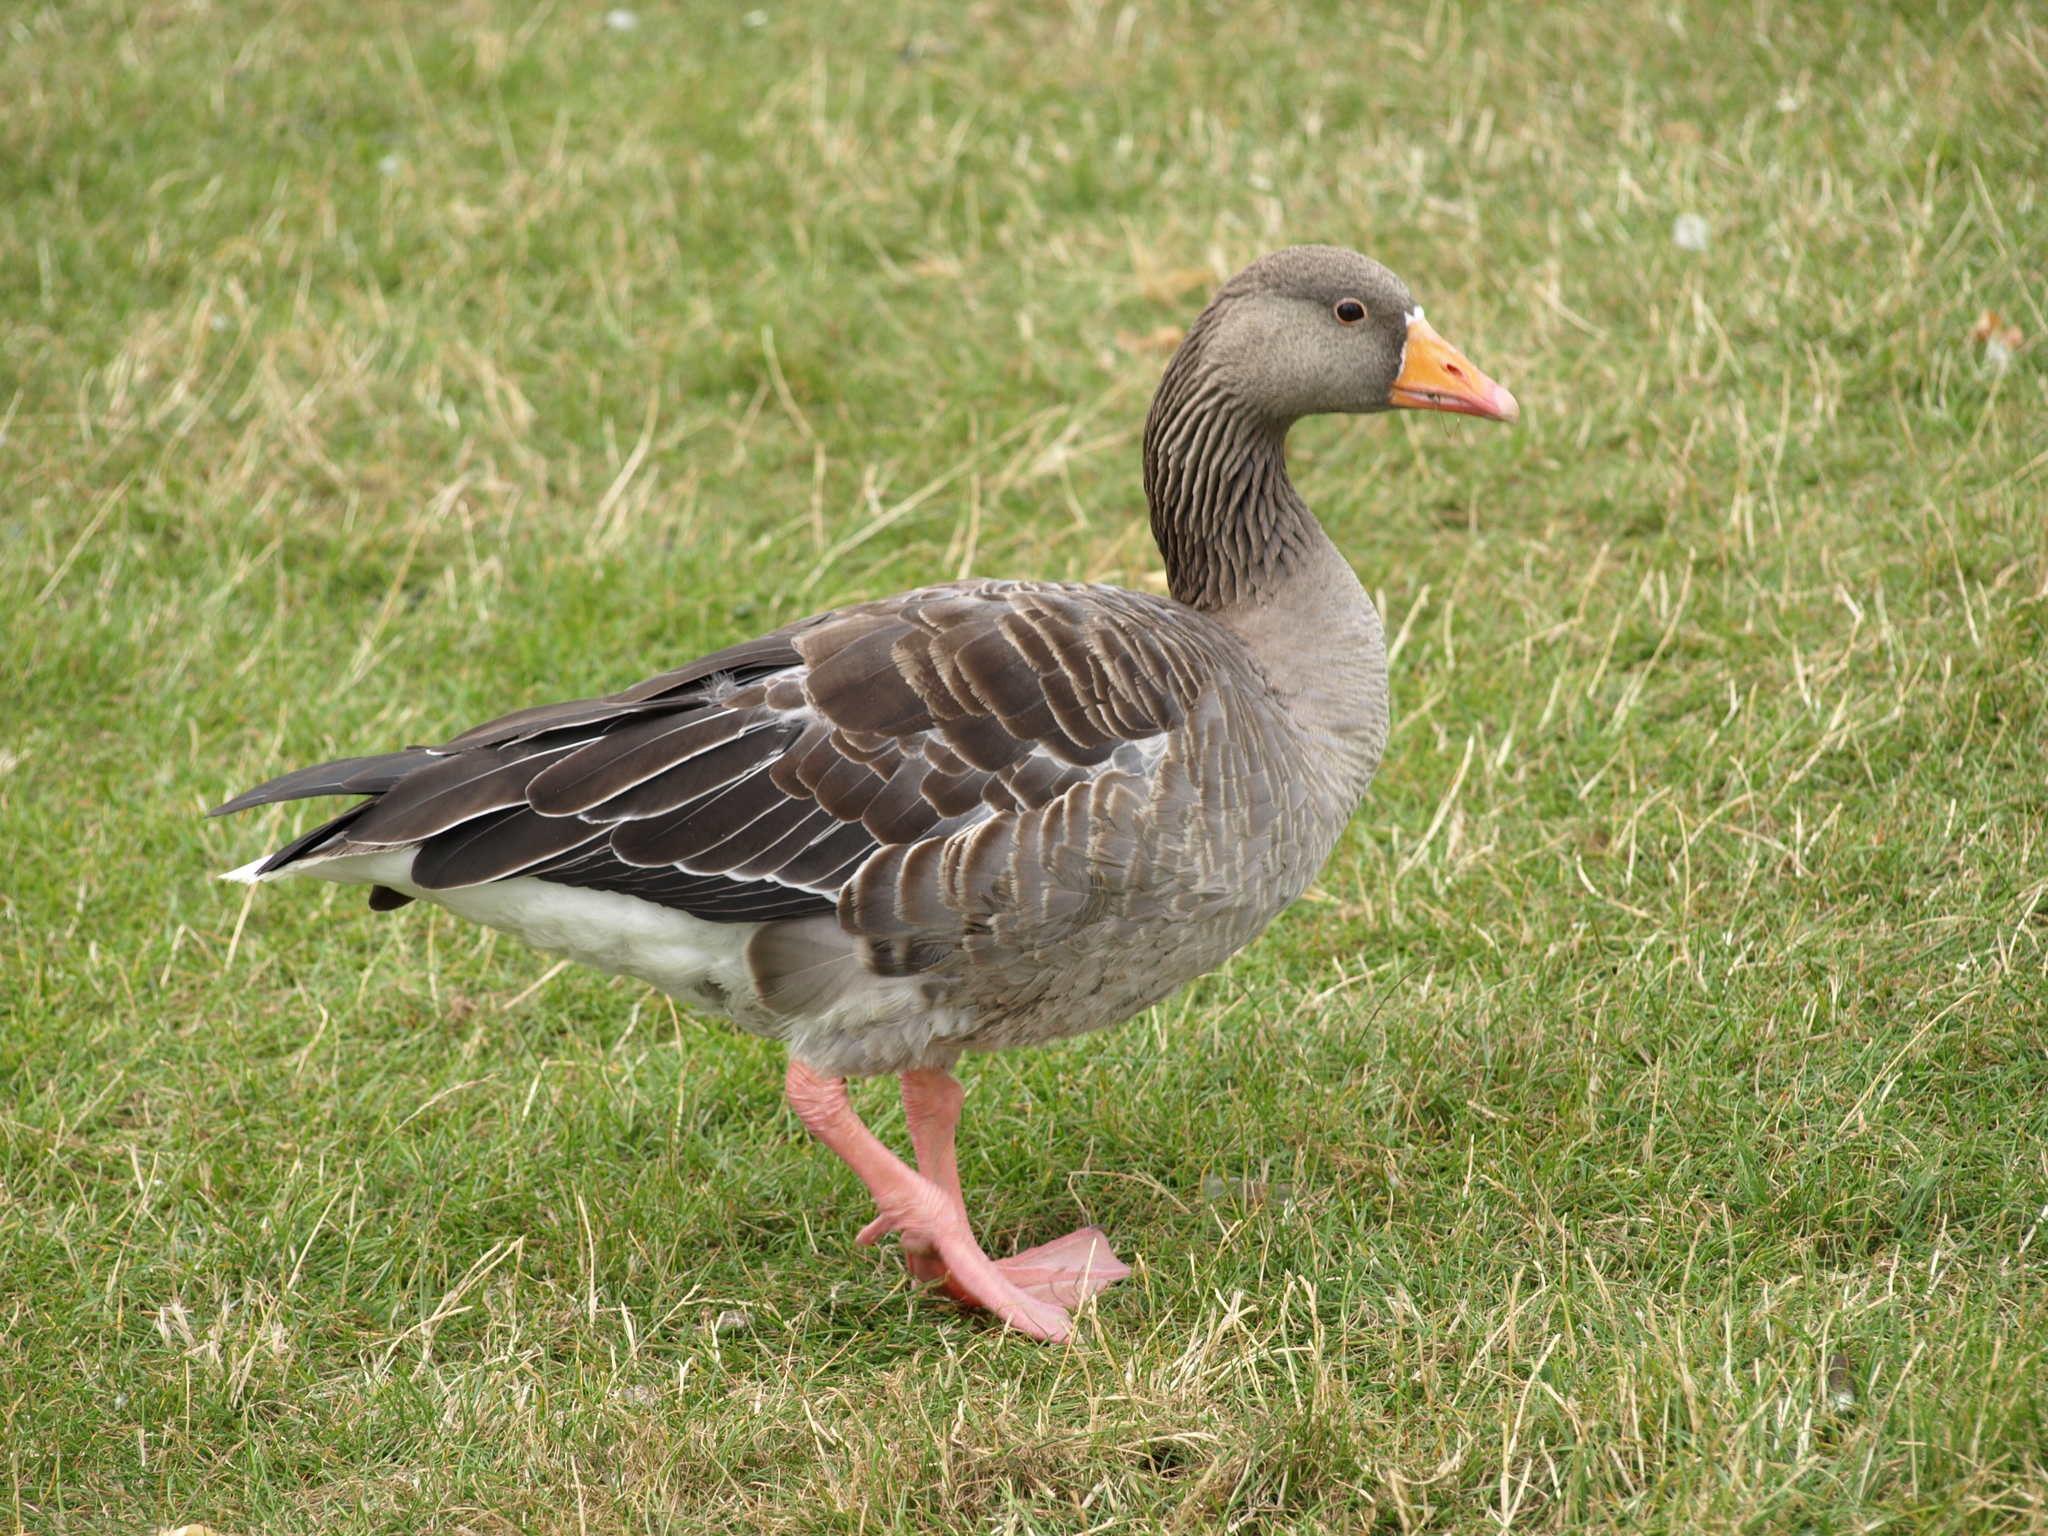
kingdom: Animalia
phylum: Chordata
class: Aves
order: Anseriformes
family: Anatidae
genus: Anser
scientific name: Anser anser
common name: Greylag goose
